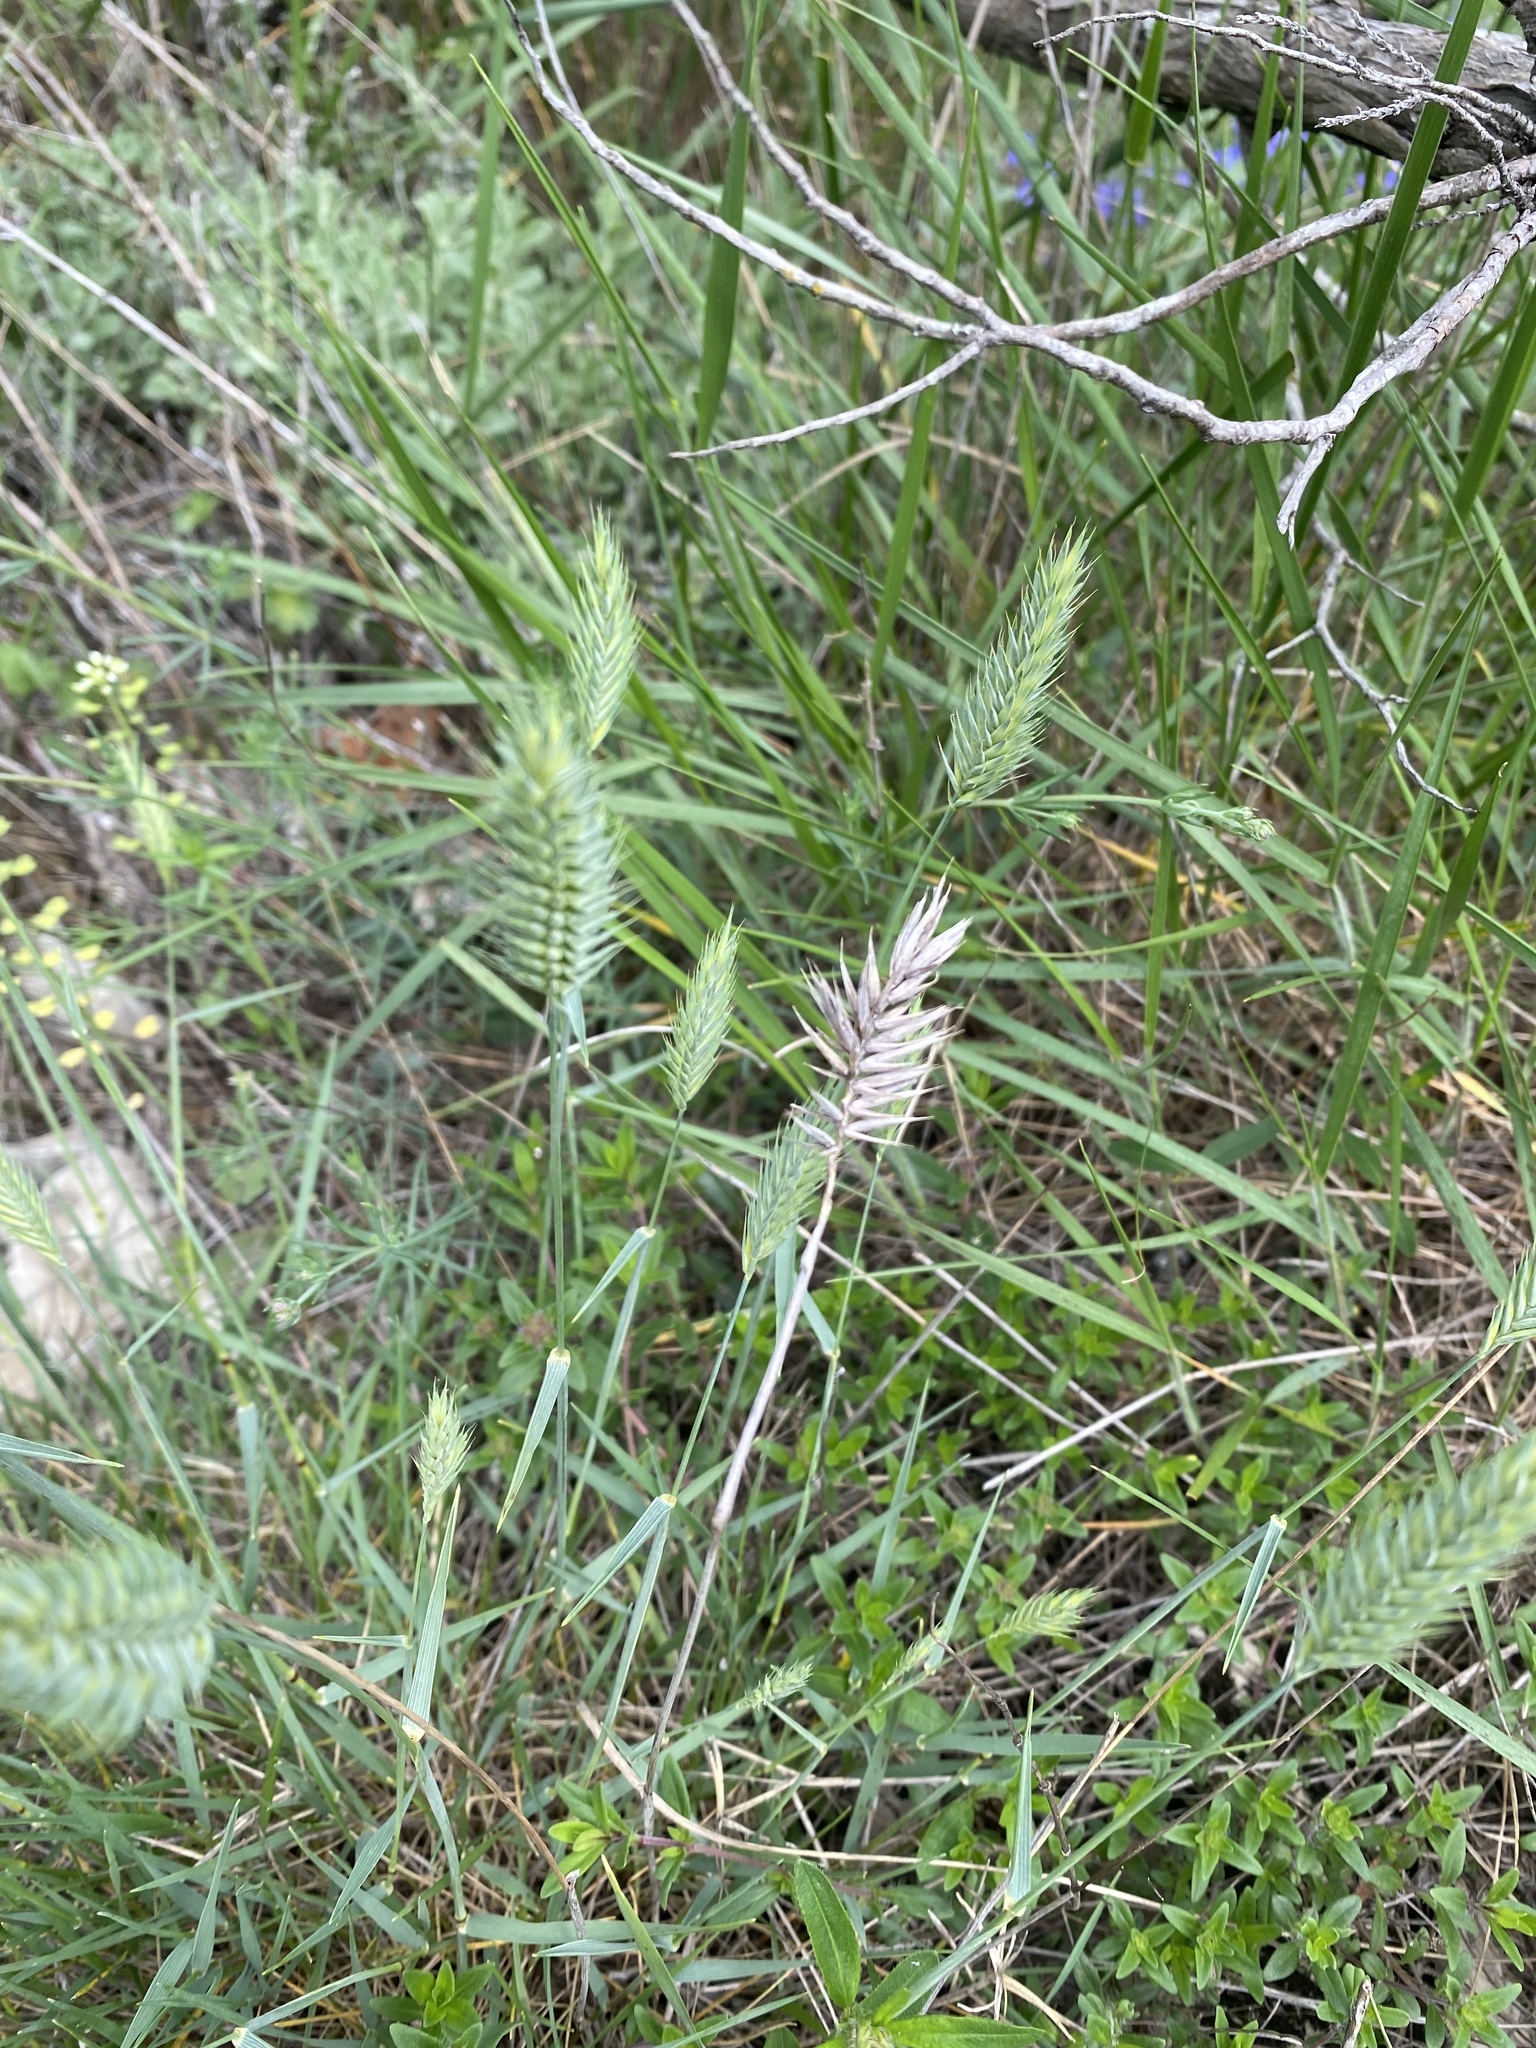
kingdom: Plantae
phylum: Tracheophyta
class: Liliopsida
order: Poales
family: Poaceae
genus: Agropyron
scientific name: Agropyron cristatum
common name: Crested wheatgrass
